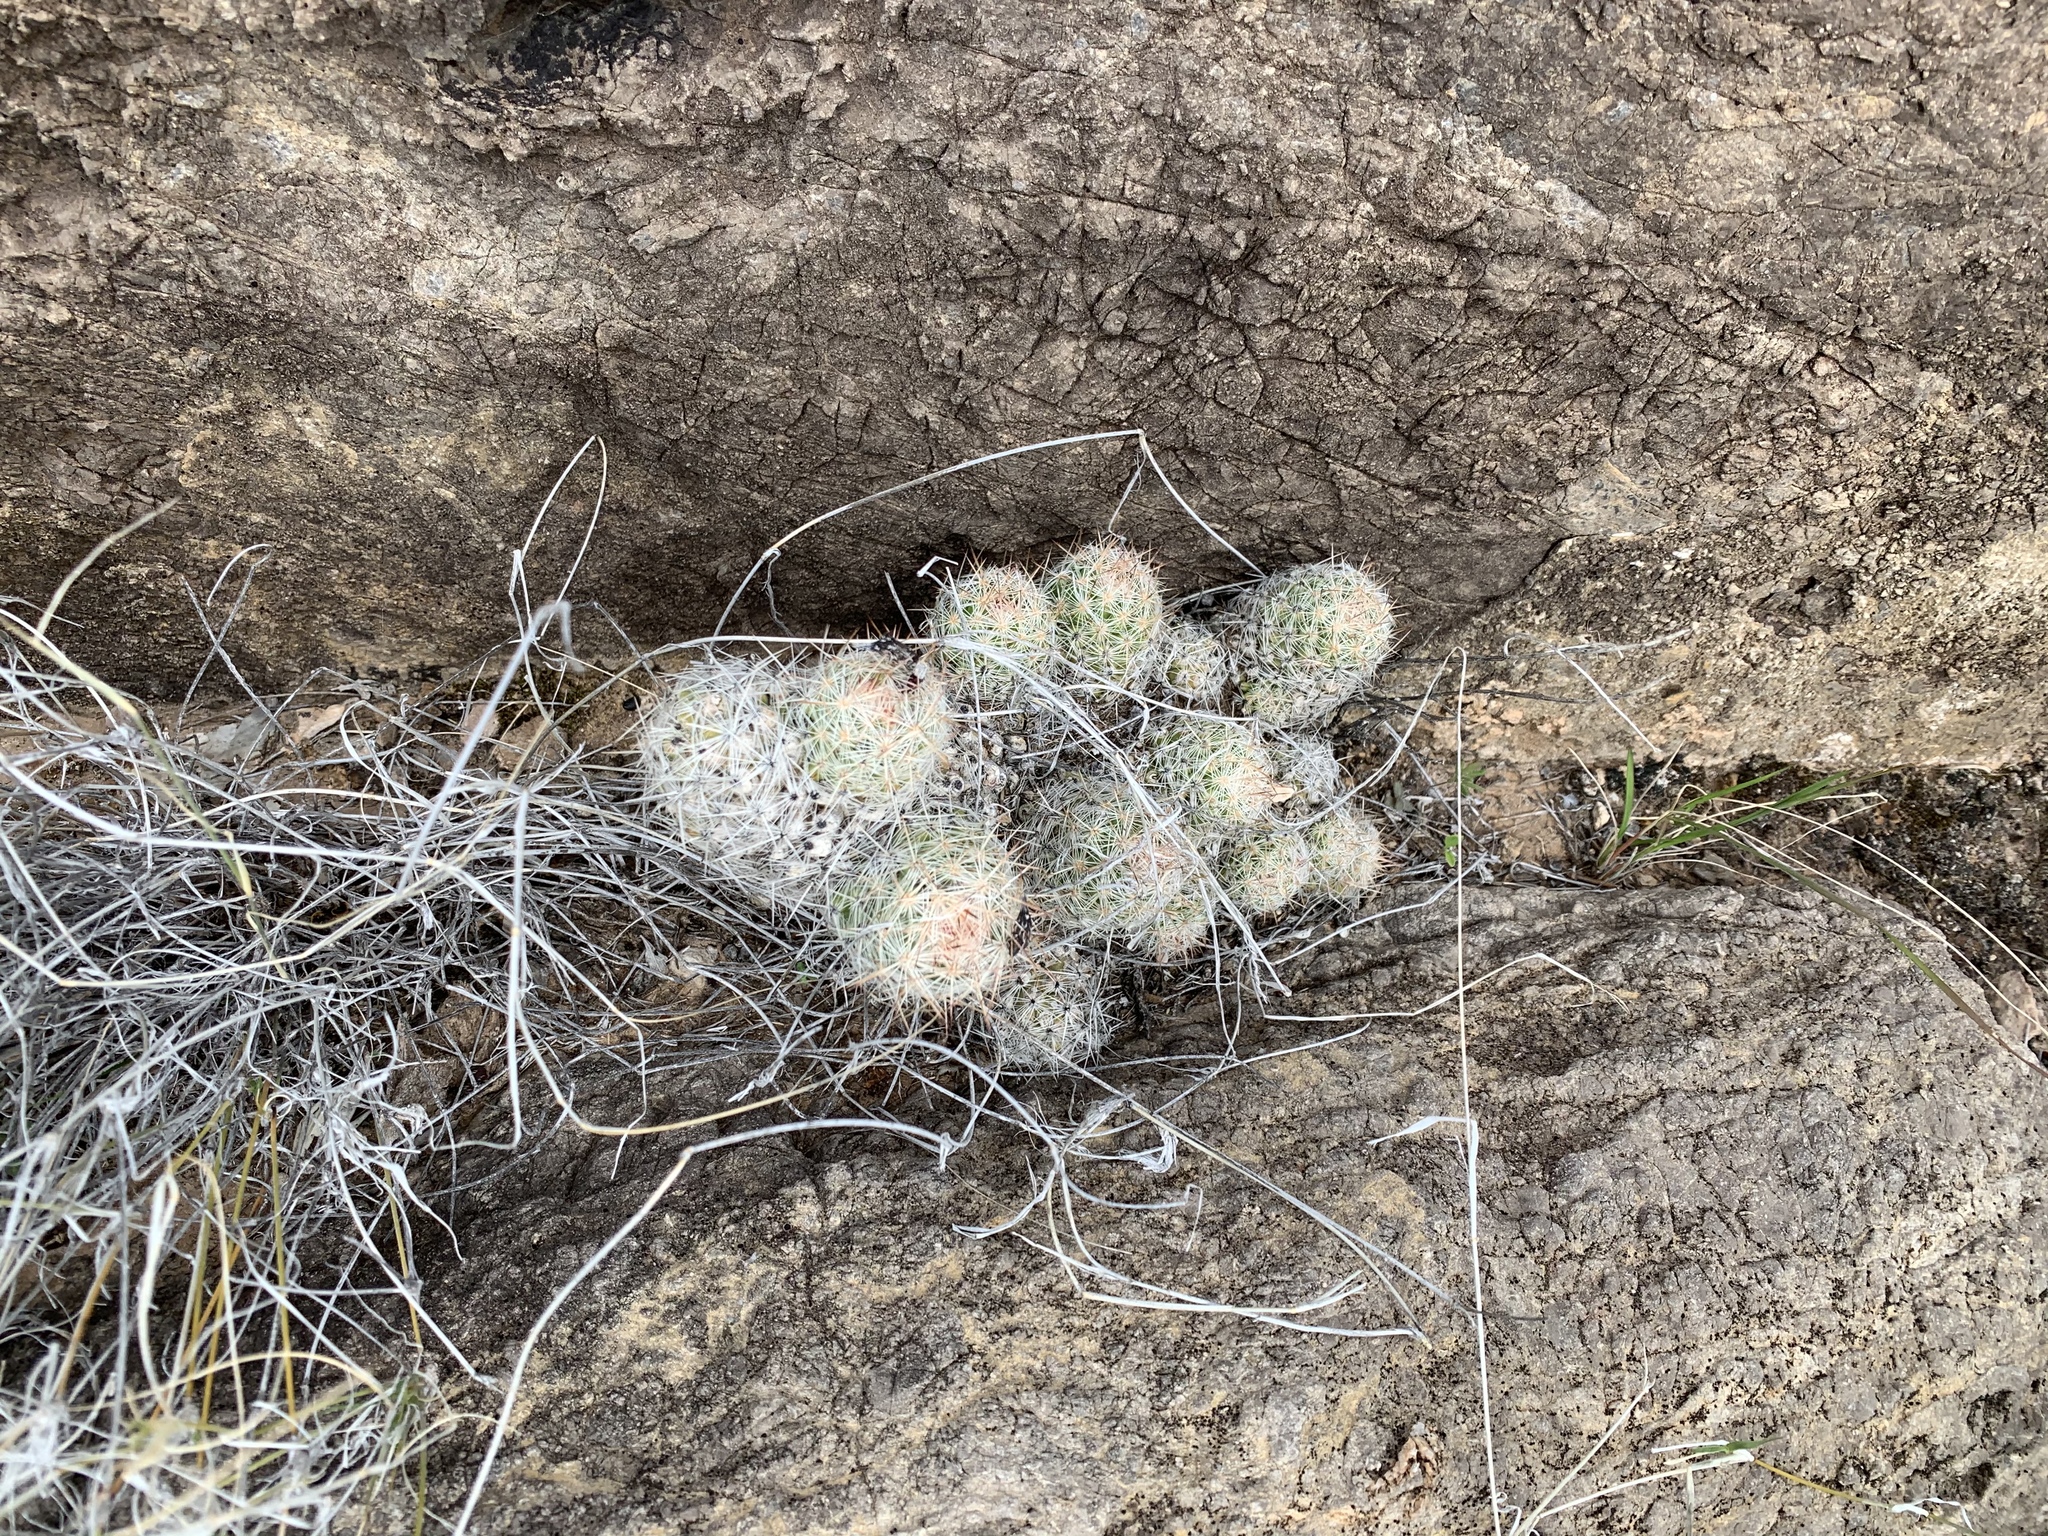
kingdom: Plantae
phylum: Tracheophyta
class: Magnoliopsida
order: Caryophyllales
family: Cactaceae
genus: Pelecyphora
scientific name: Pelecyphora tuberculosa
